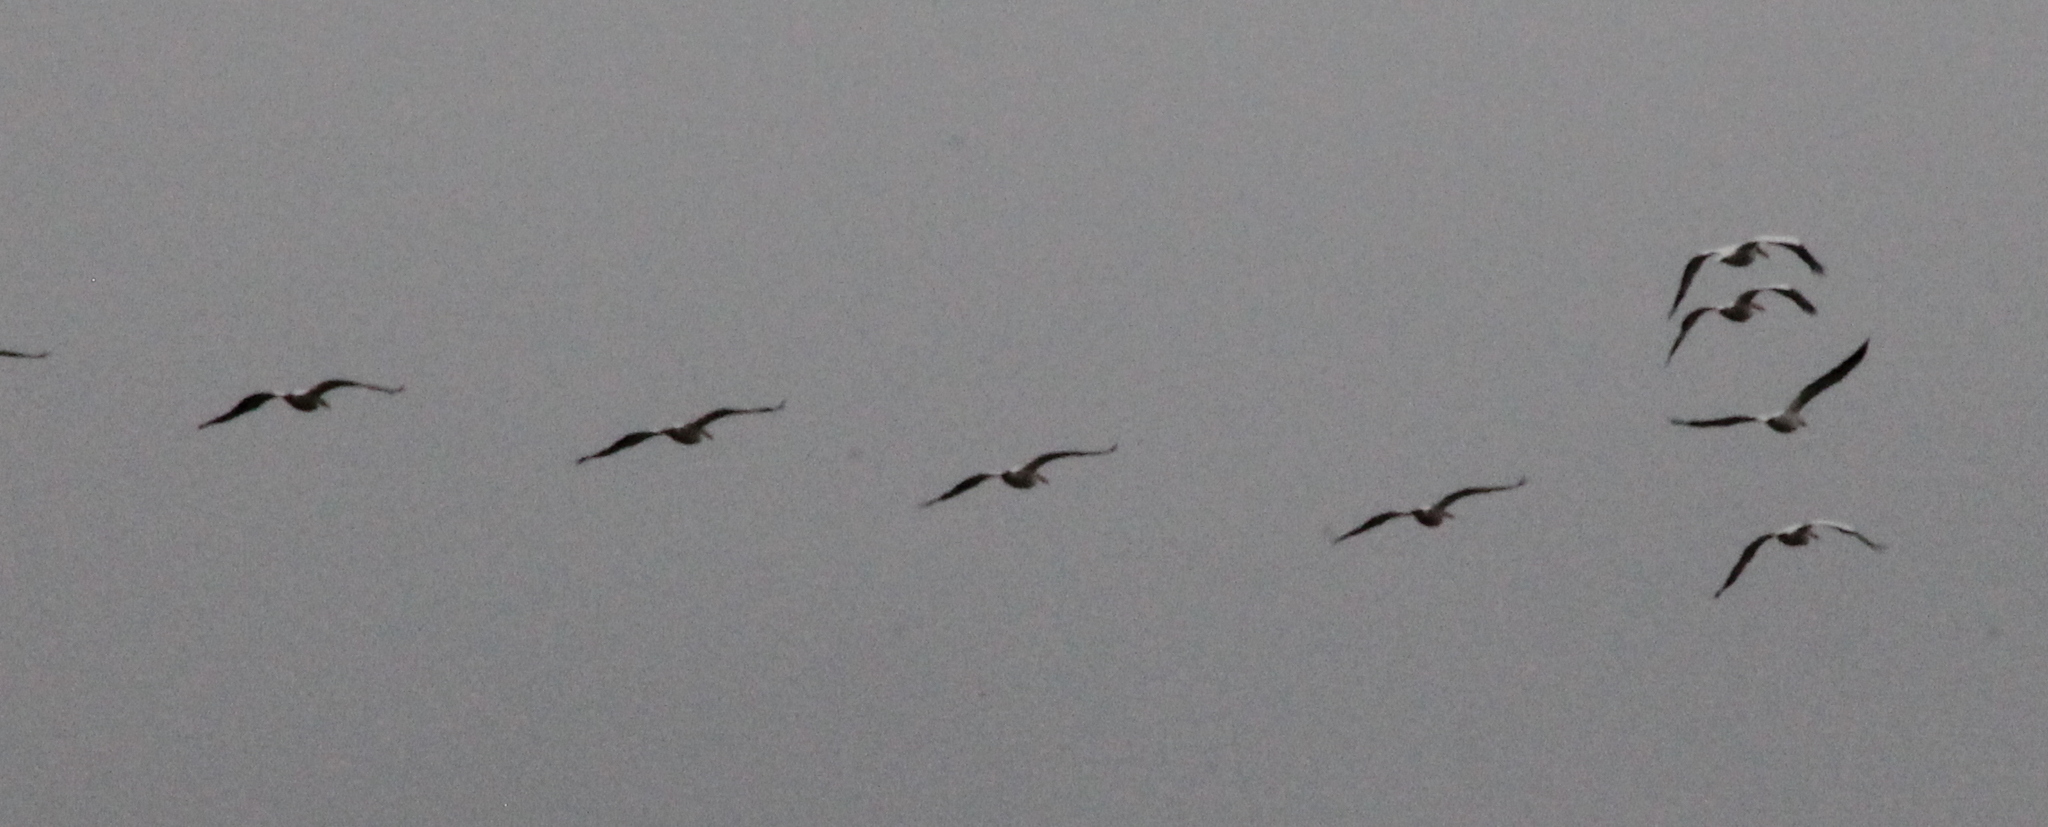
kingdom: Animalia
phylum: Chordata
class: Aves
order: Pelecaniformes
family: Pelecanidae
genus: Pelecanus
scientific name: Pelecanus erythrorhynchos
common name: American white pelican
